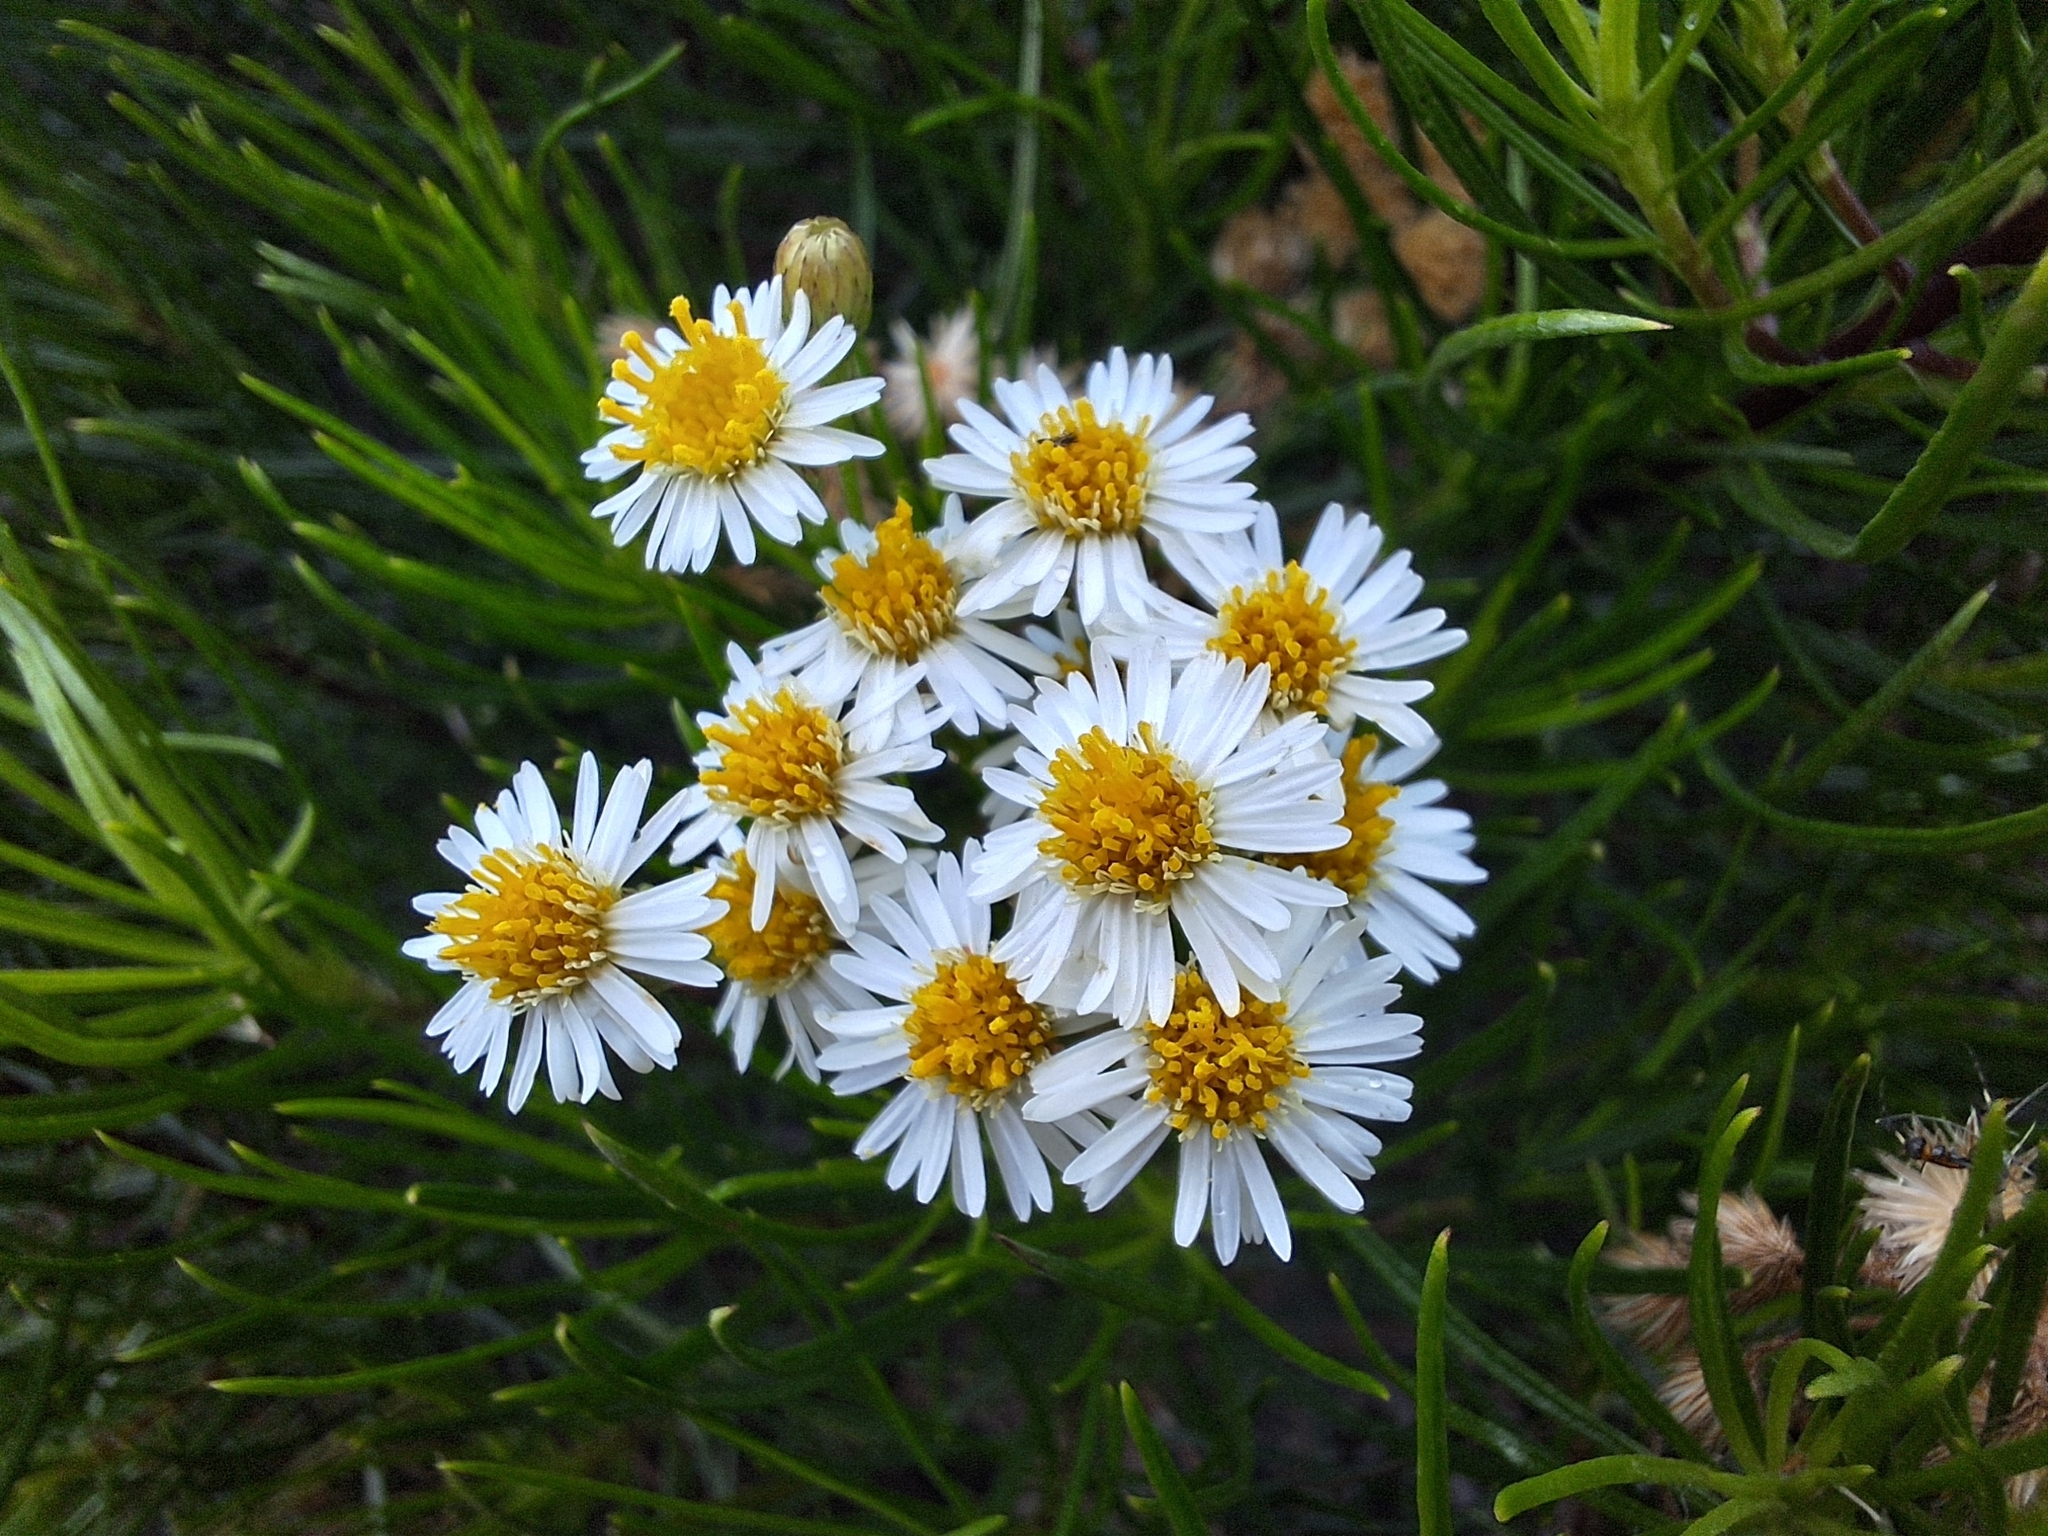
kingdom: Plantae
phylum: Tracheophyta
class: Magnoliopsida
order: Asterales
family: Asteraceae
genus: Erigeron
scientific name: Erigeron tenuifolius
